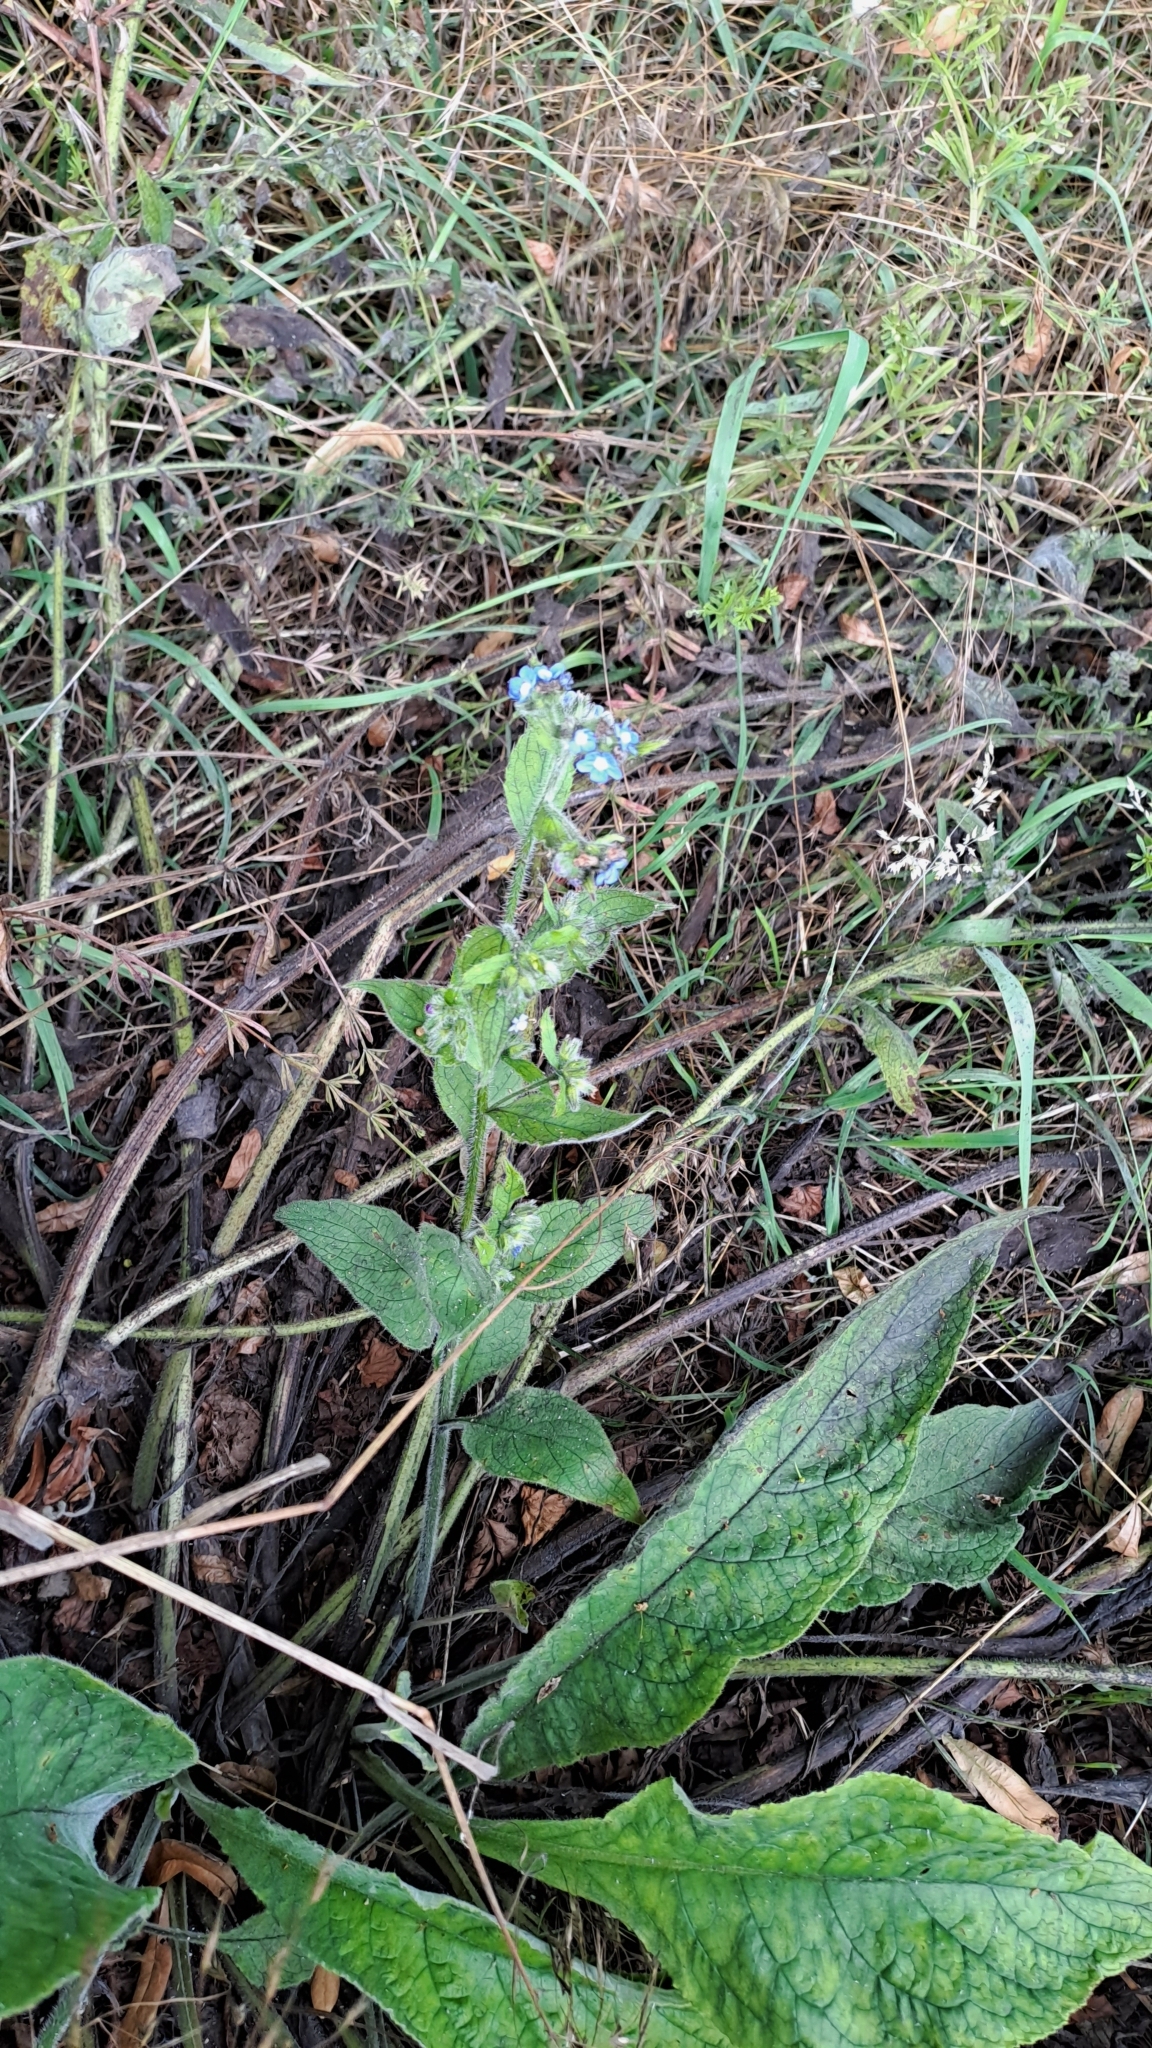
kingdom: Plantae
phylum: Tracheophyta
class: Magnoliopsida
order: Boraginales
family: Boraginaceae
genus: Pentaglottis
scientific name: Pentaglottis sempervirens
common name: Green alkanet
